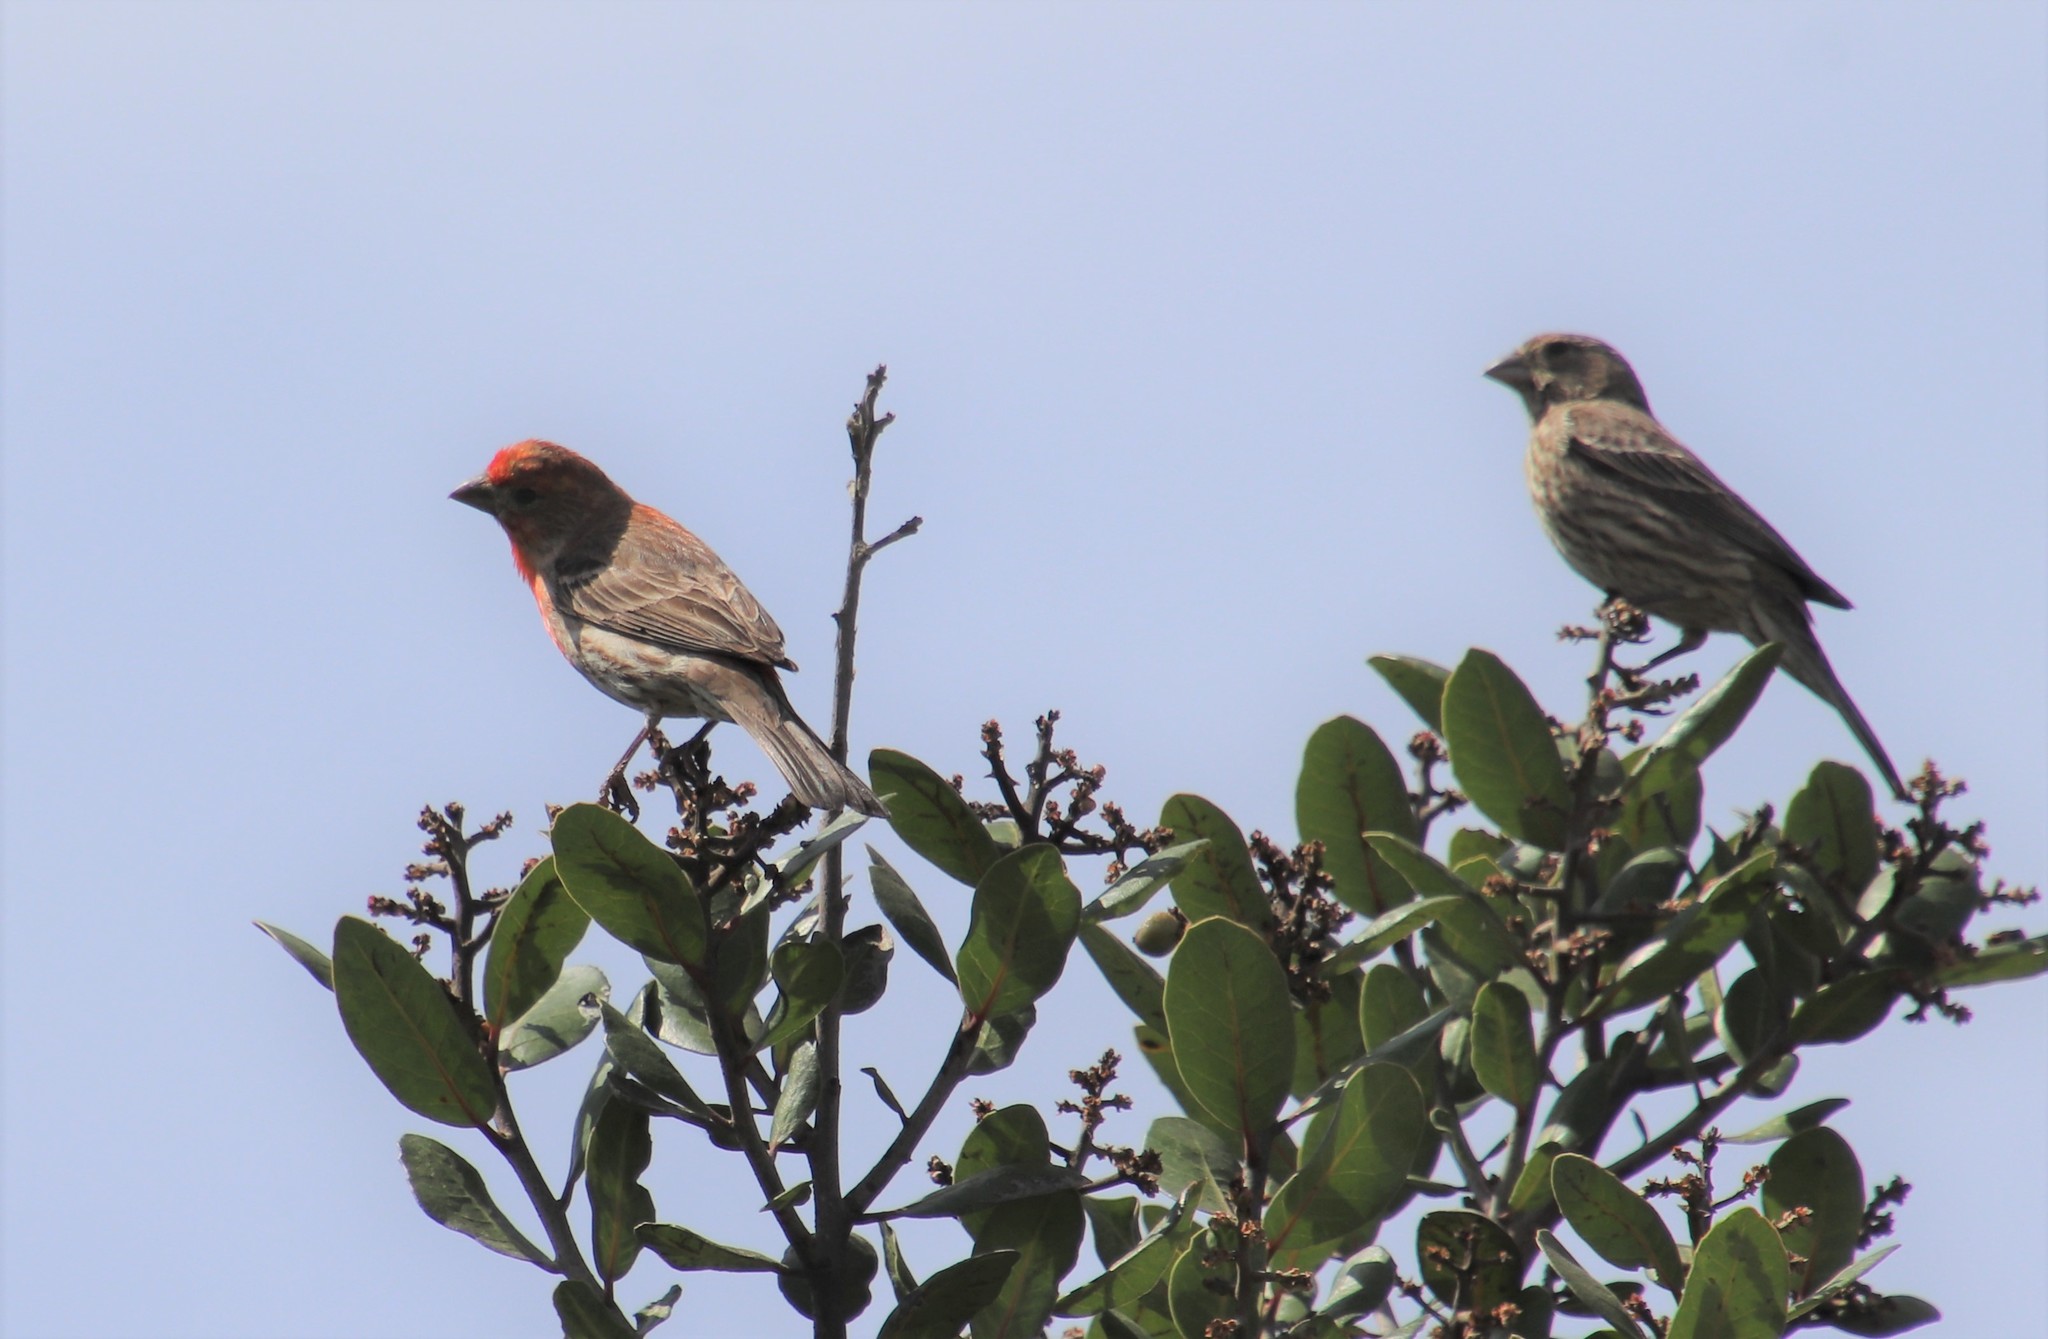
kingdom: Animalia
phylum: Chordata
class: Aves
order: Passeriformes
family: Fringillidae
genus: Haemorhous
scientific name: Haemorhous mexicanus
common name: House finch
